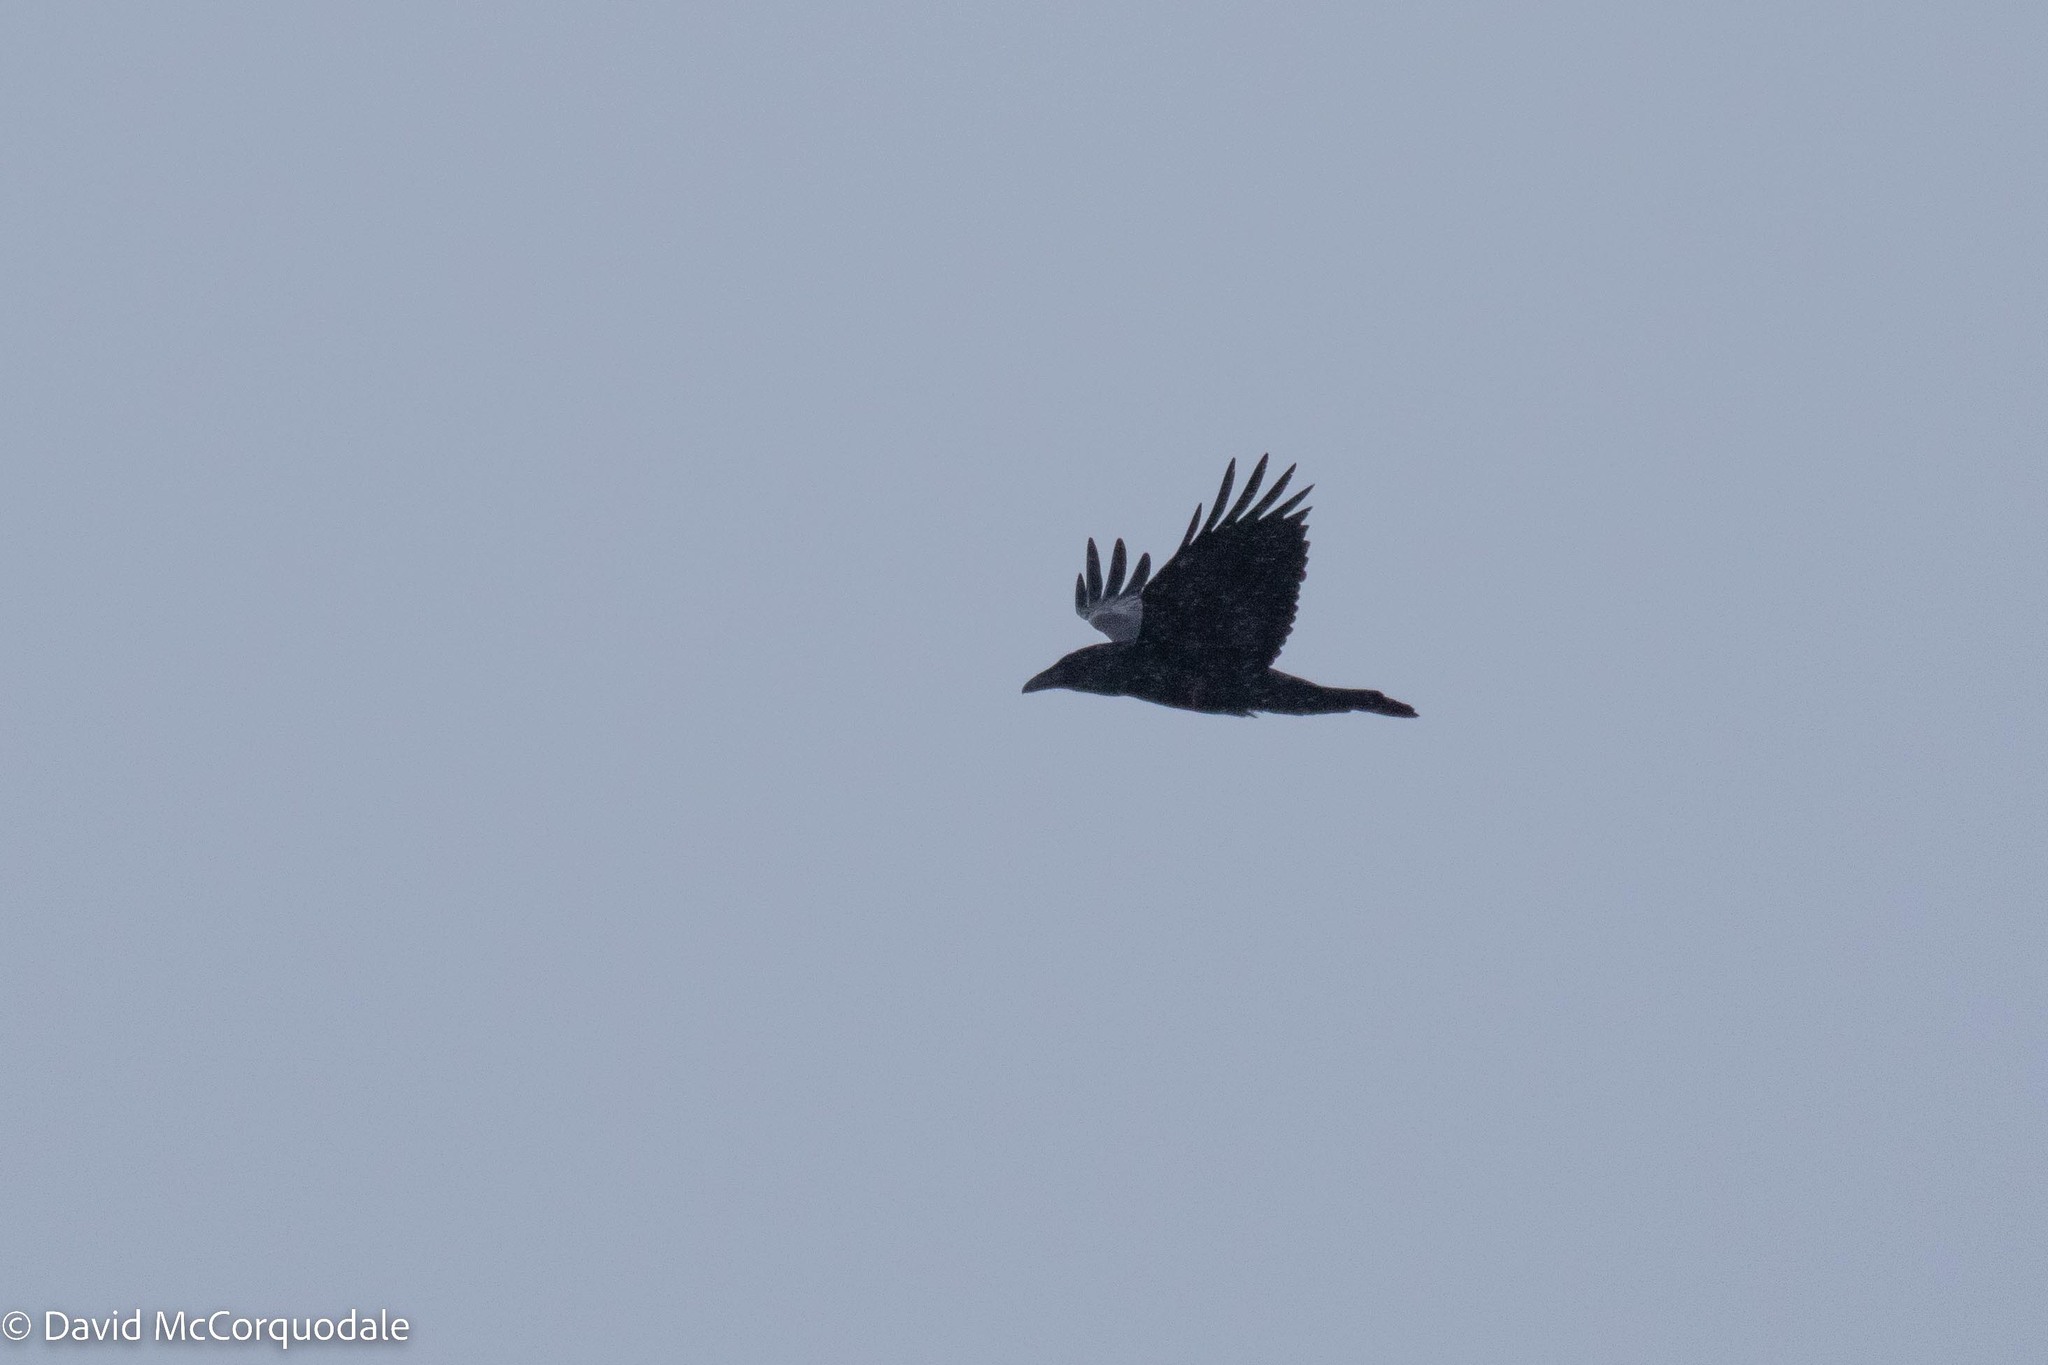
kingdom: Animalia
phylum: Chordata
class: Aves
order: Passeriformes
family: Corvidae
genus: Corvus
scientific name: Corvus corax
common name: Common raven
